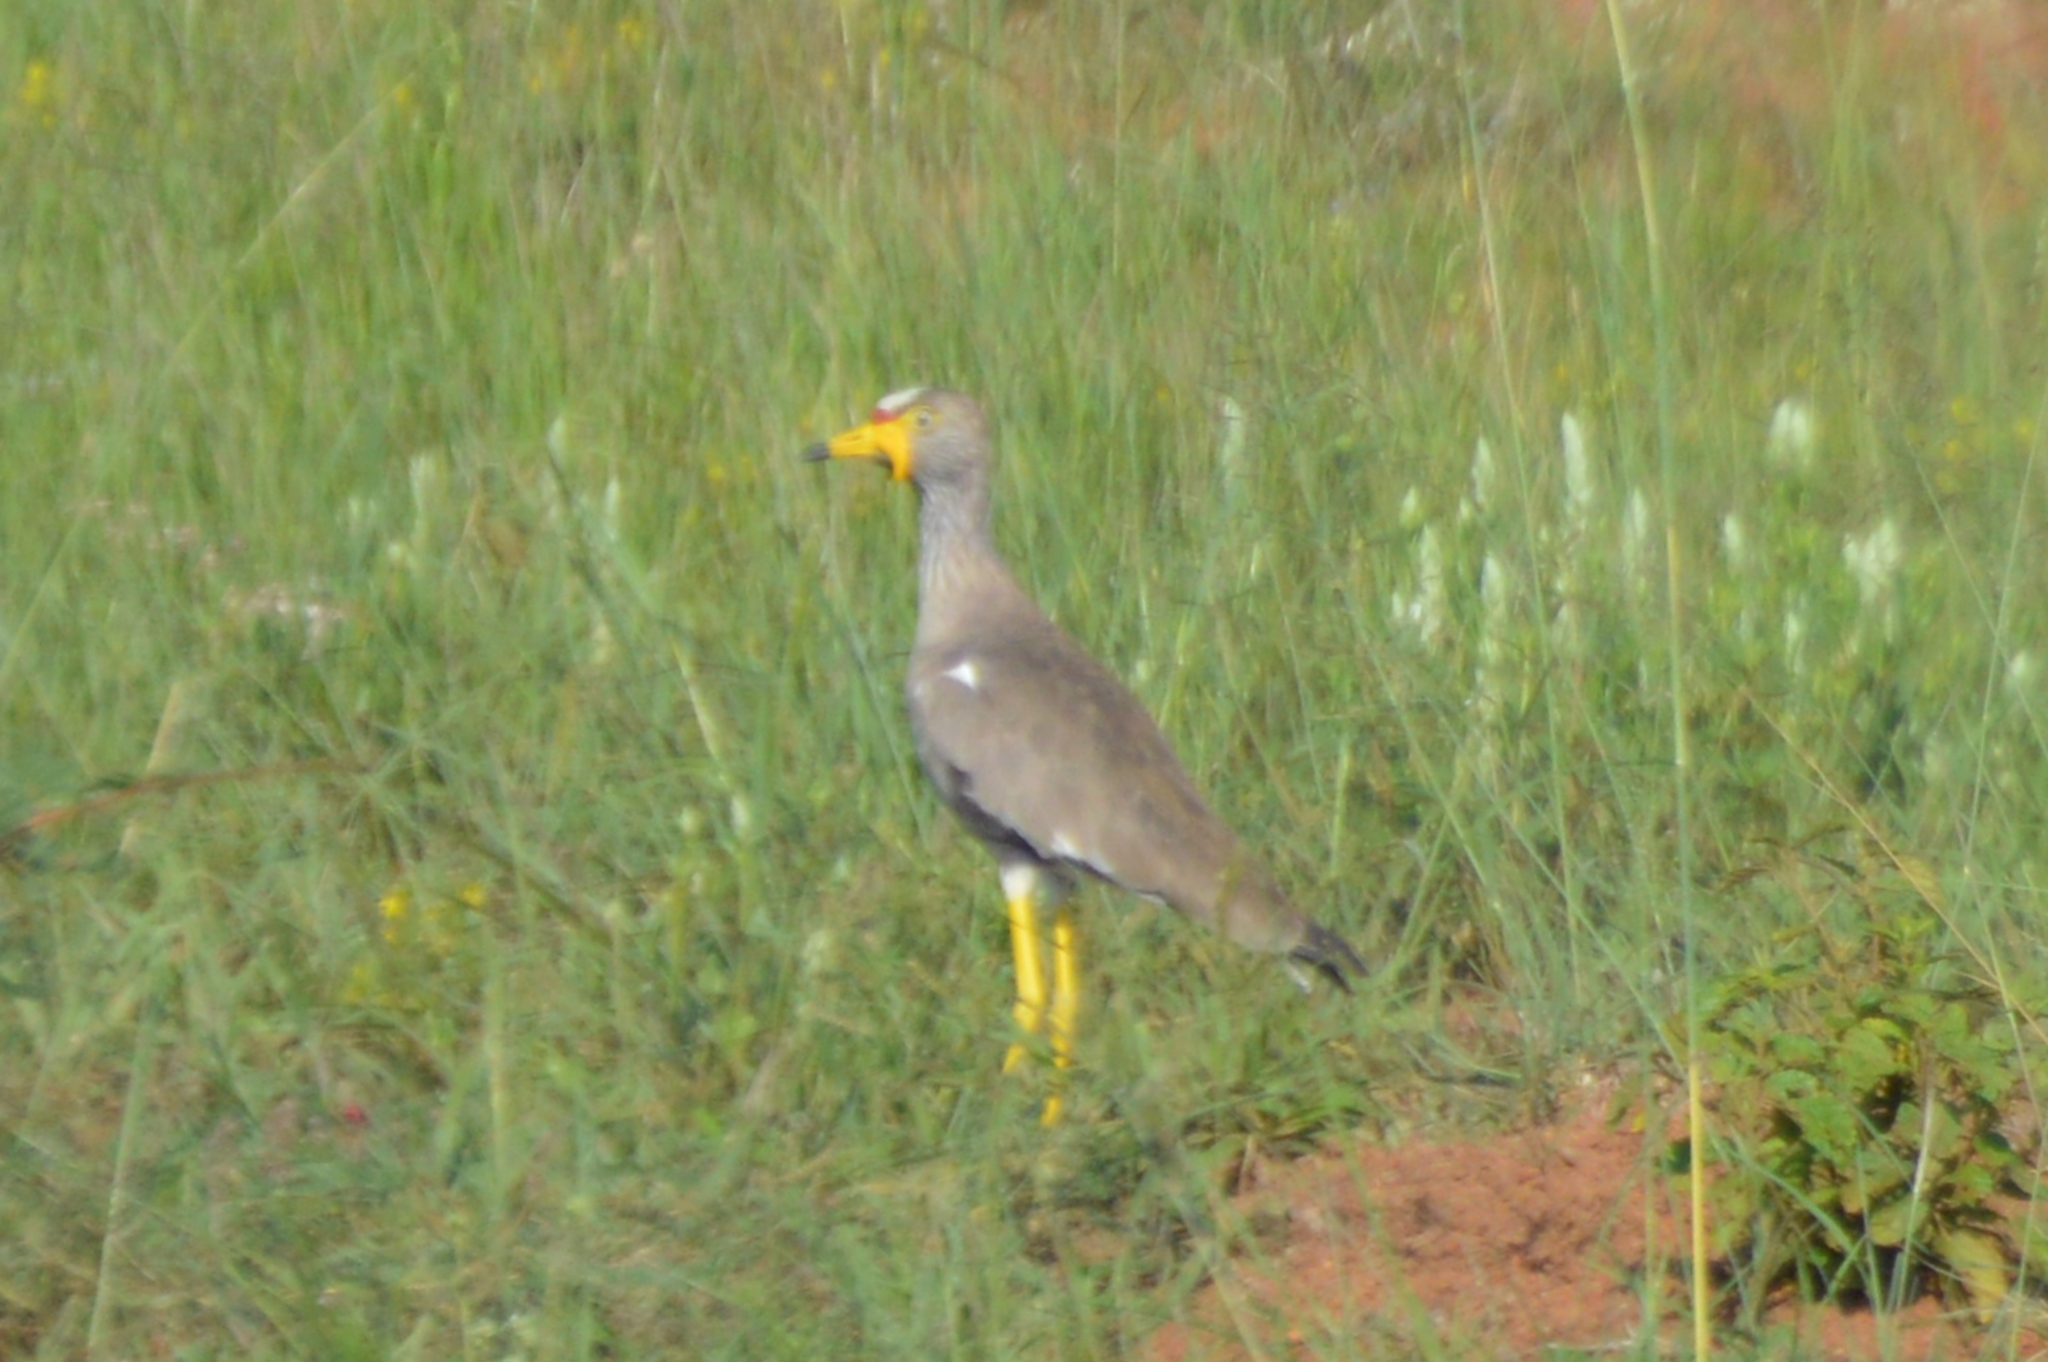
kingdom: Animalia
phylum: Chordata
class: Aves
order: Charadriiformes
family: Charadriidae
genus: Vanellus
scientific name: Vanellus senegallus
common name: African wattled lapwing
